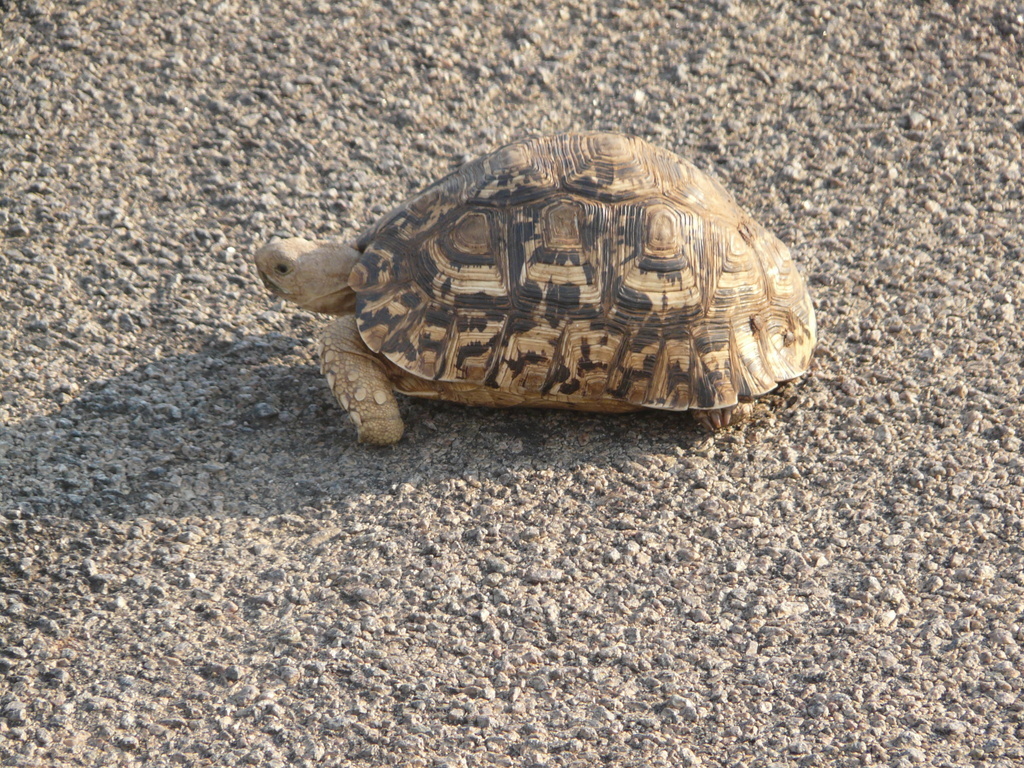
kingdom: Animalia
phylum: Chordata
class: Testudines
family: Testudinidae
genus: Stigmochelys
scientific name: Stigmochelys pardalis
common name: Leopard tortoise
